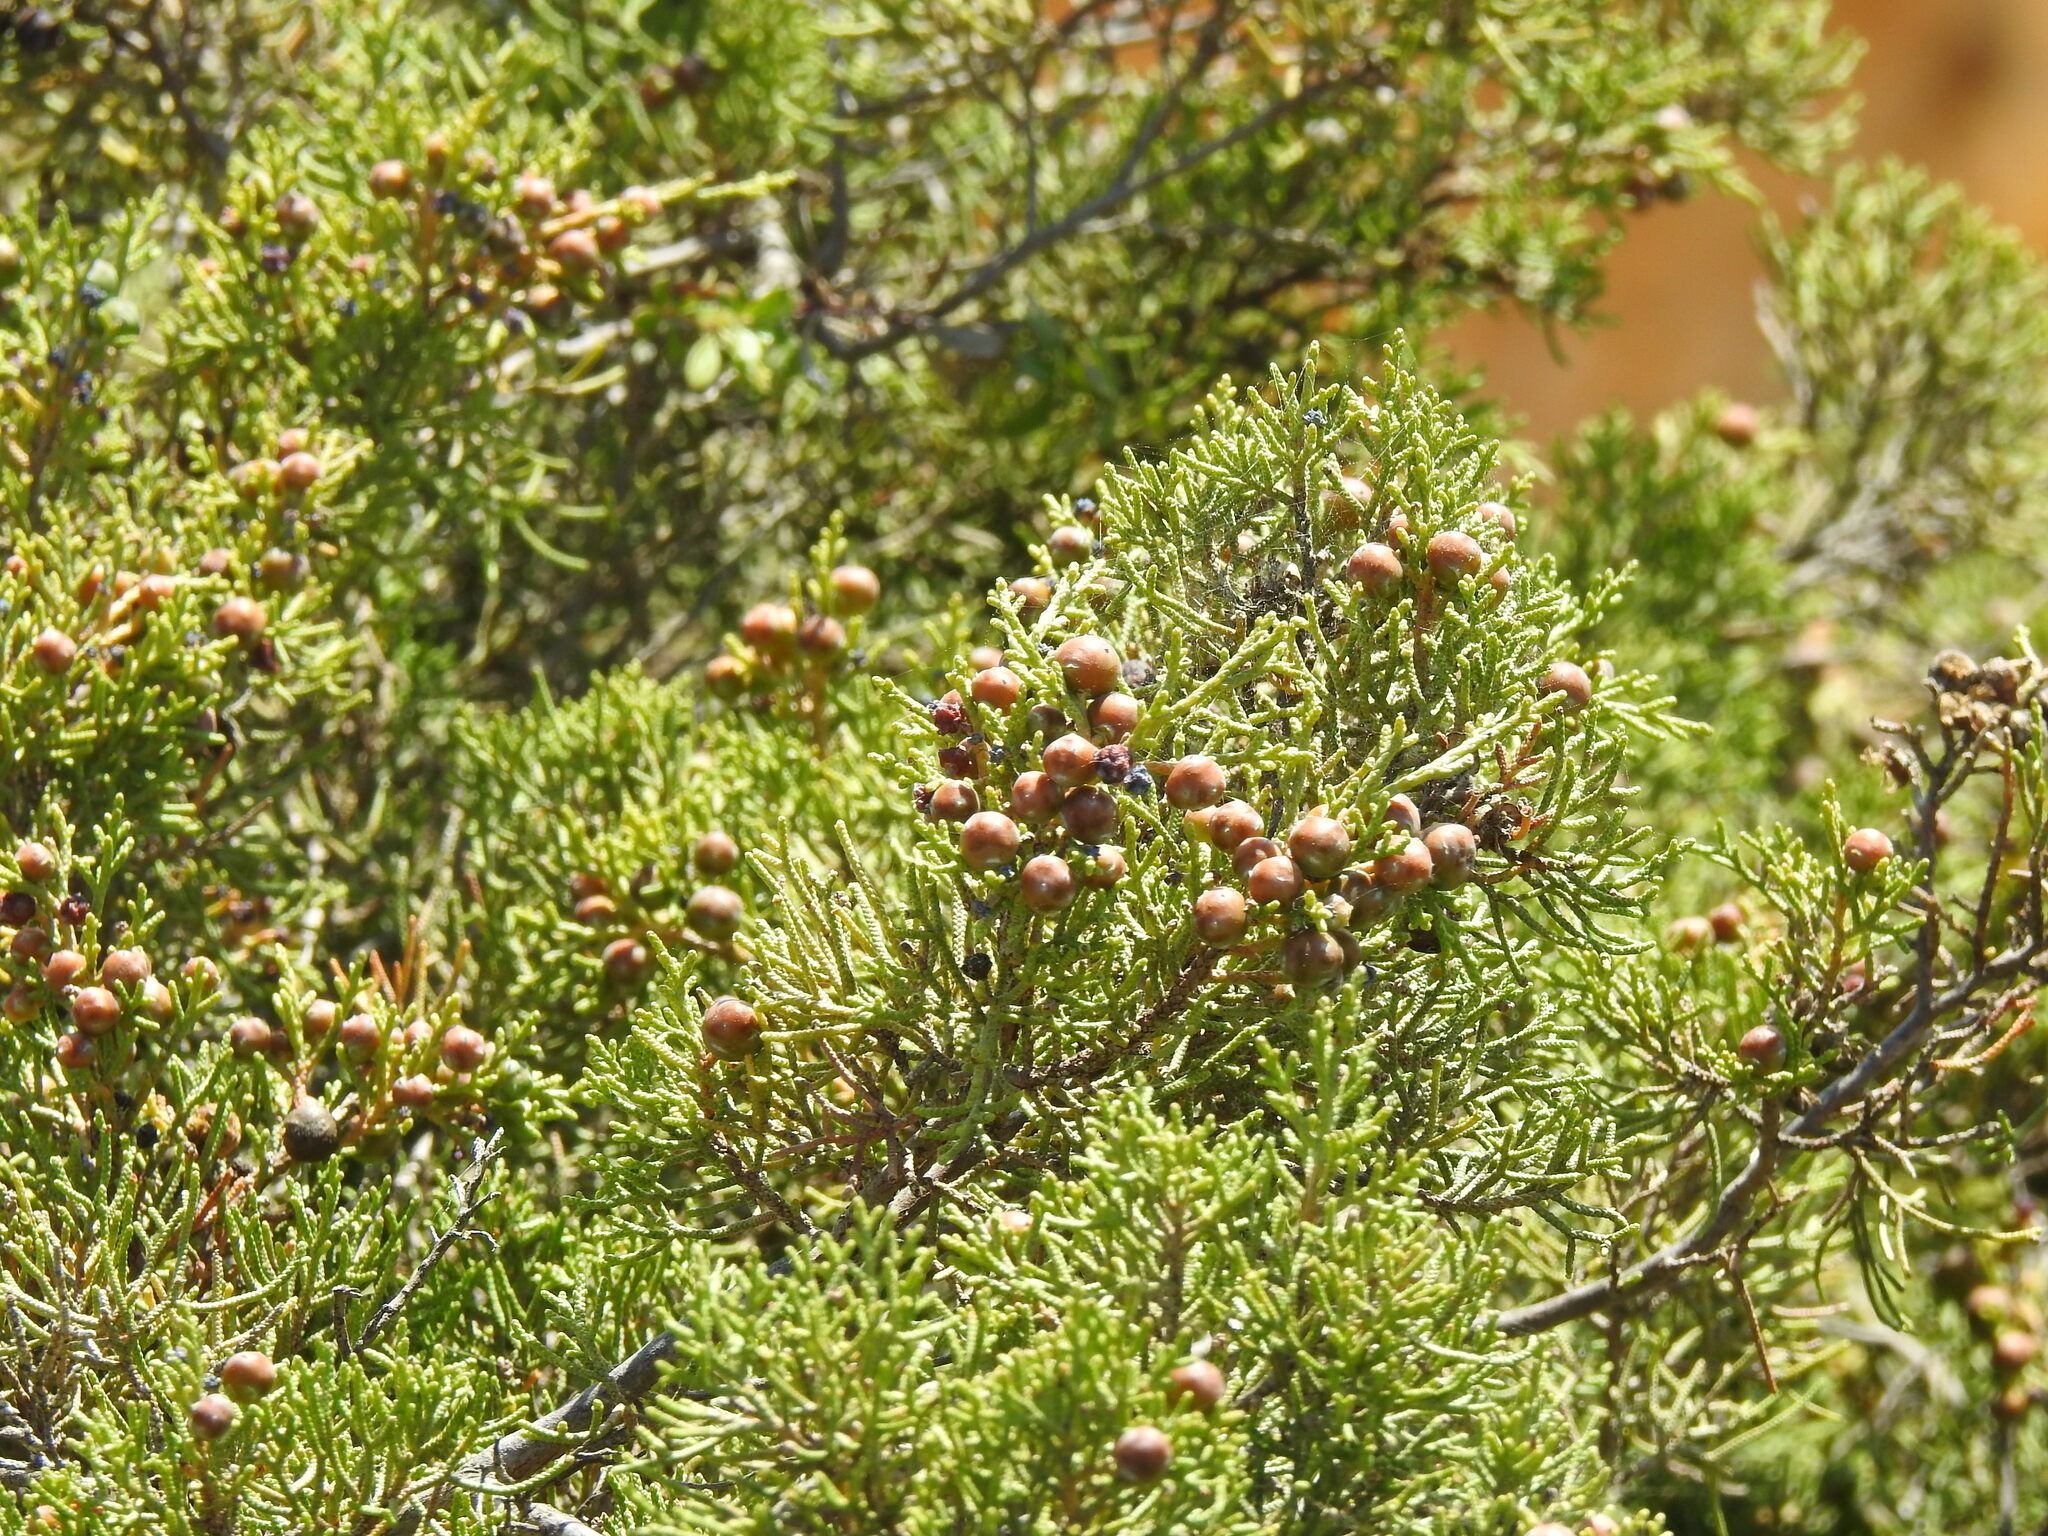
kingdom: Plantae
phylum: Tracheophyta
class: Pinopsida
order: Pinales
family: Cupressaceae
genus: Juniperus
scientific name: Juniperus phoenicea
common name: Phoenician juniper
